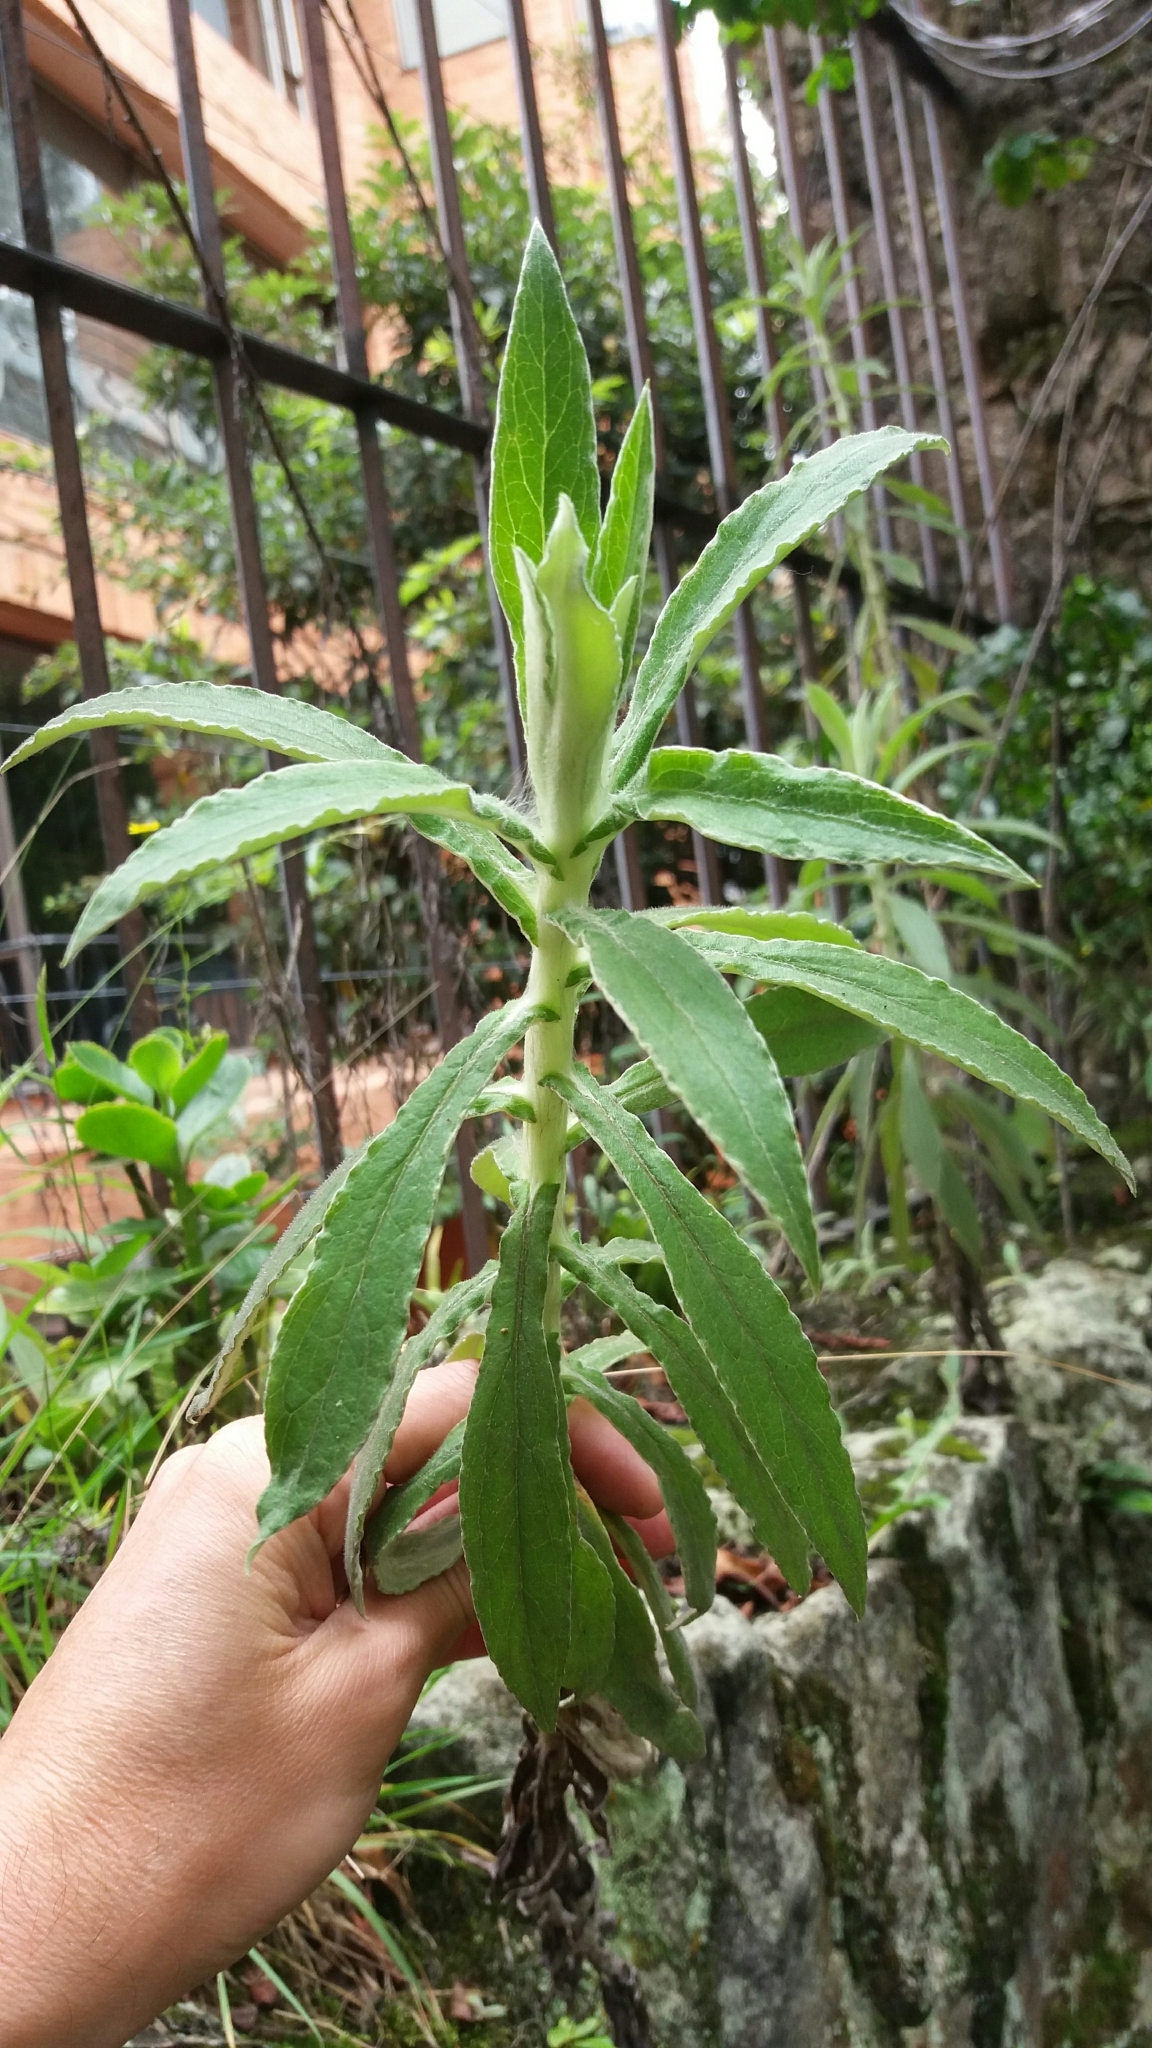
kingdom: Plantae
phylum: Tracheophyta
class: Magnoliopsida
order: Asterales
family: Asteraceae
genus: Pseudognaphalium
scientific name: Pseudognaphalium domingense
